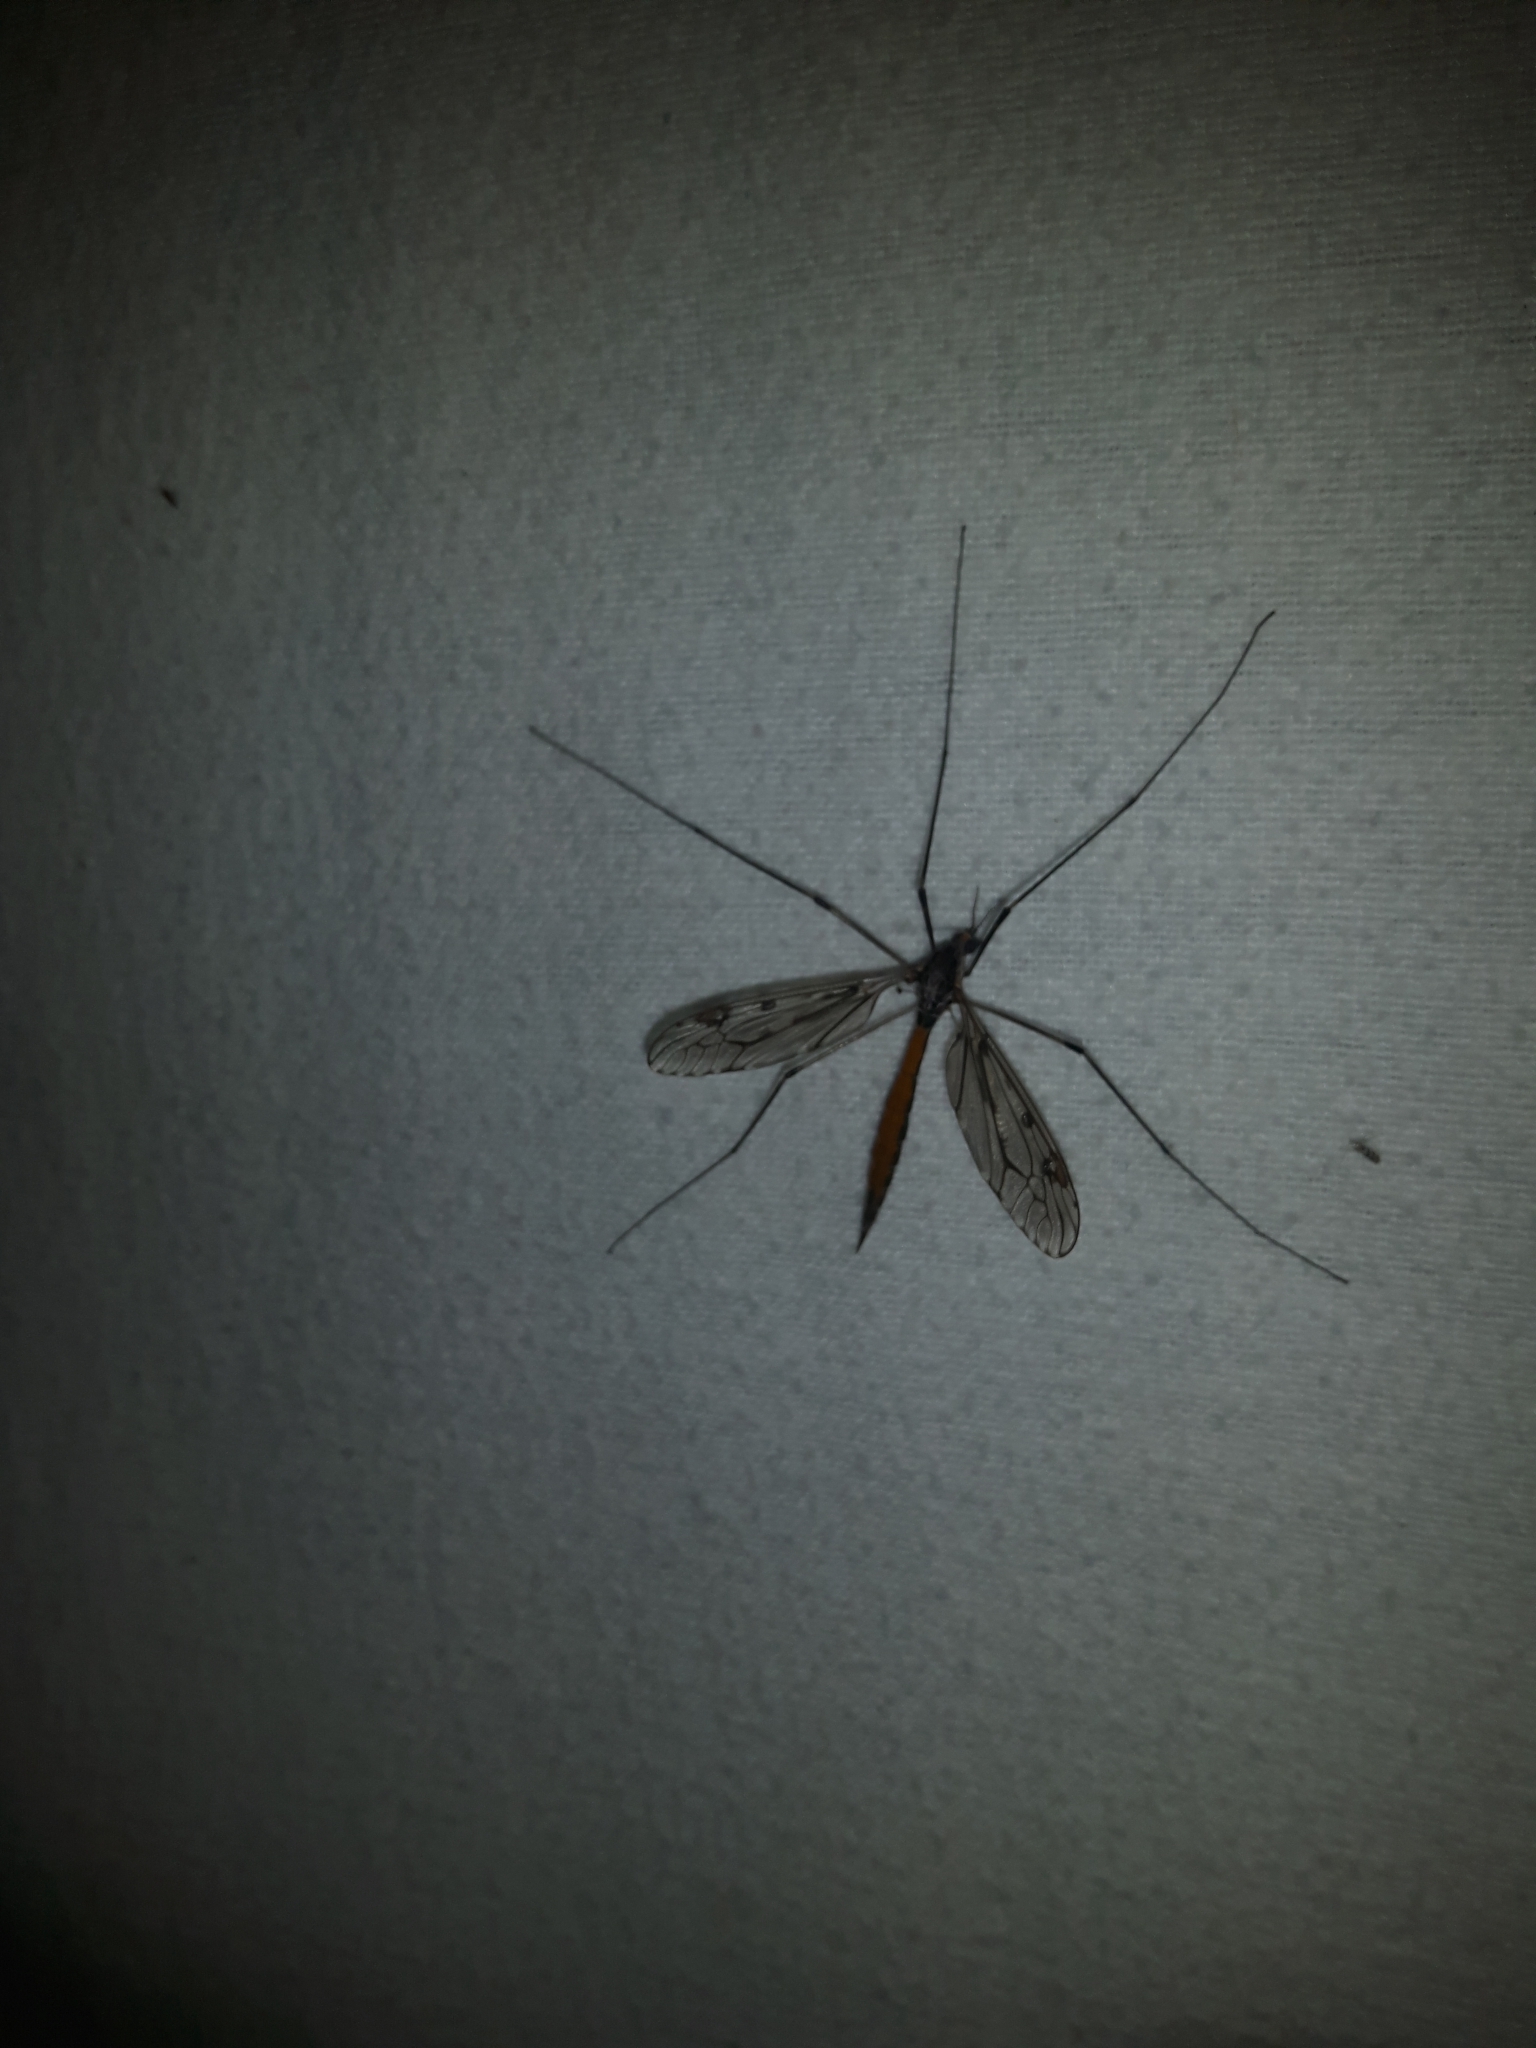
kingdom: Animalia
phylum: Arthropoda
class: Insecta
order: Diptera
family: Tipulidae
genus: Tipula
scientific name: Tipula abdominalis
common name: Giant crane fly
